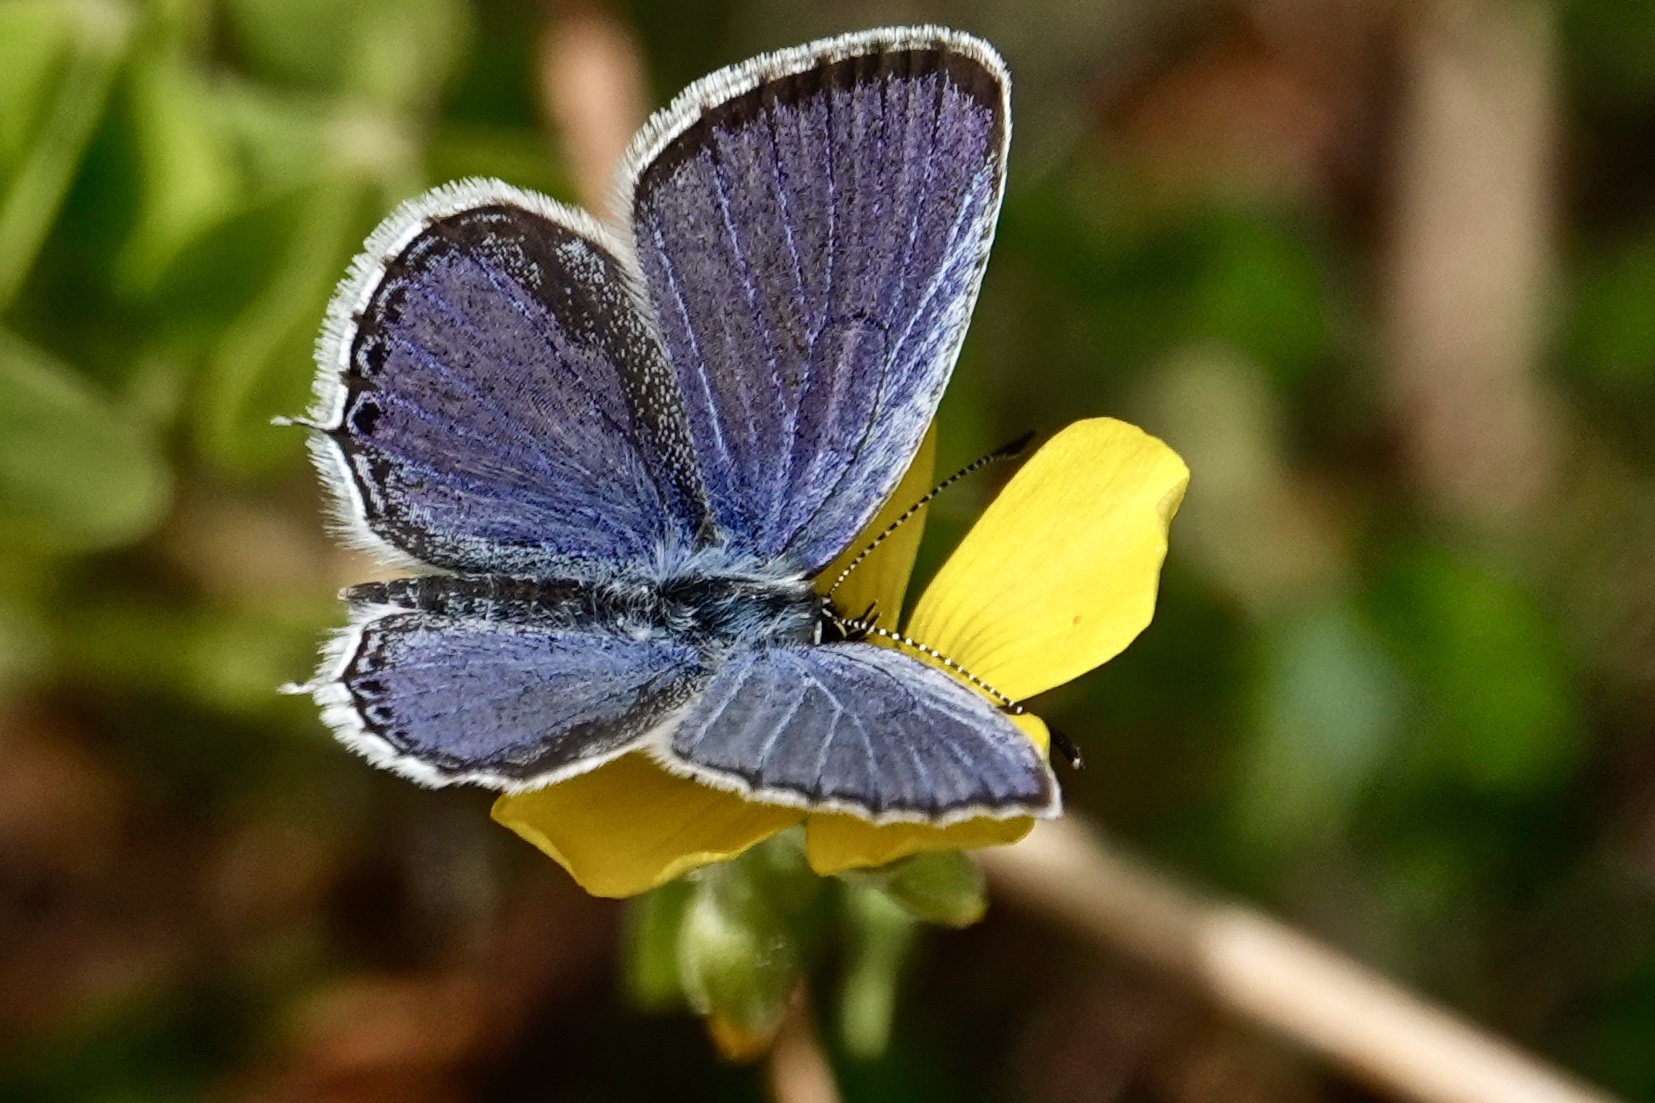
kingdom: Animalia
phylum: Arthropoda
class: Insecta
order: Lepidoptera
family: Lycaenidae
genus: Elkalyce
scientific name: Elkalyce comyntas
